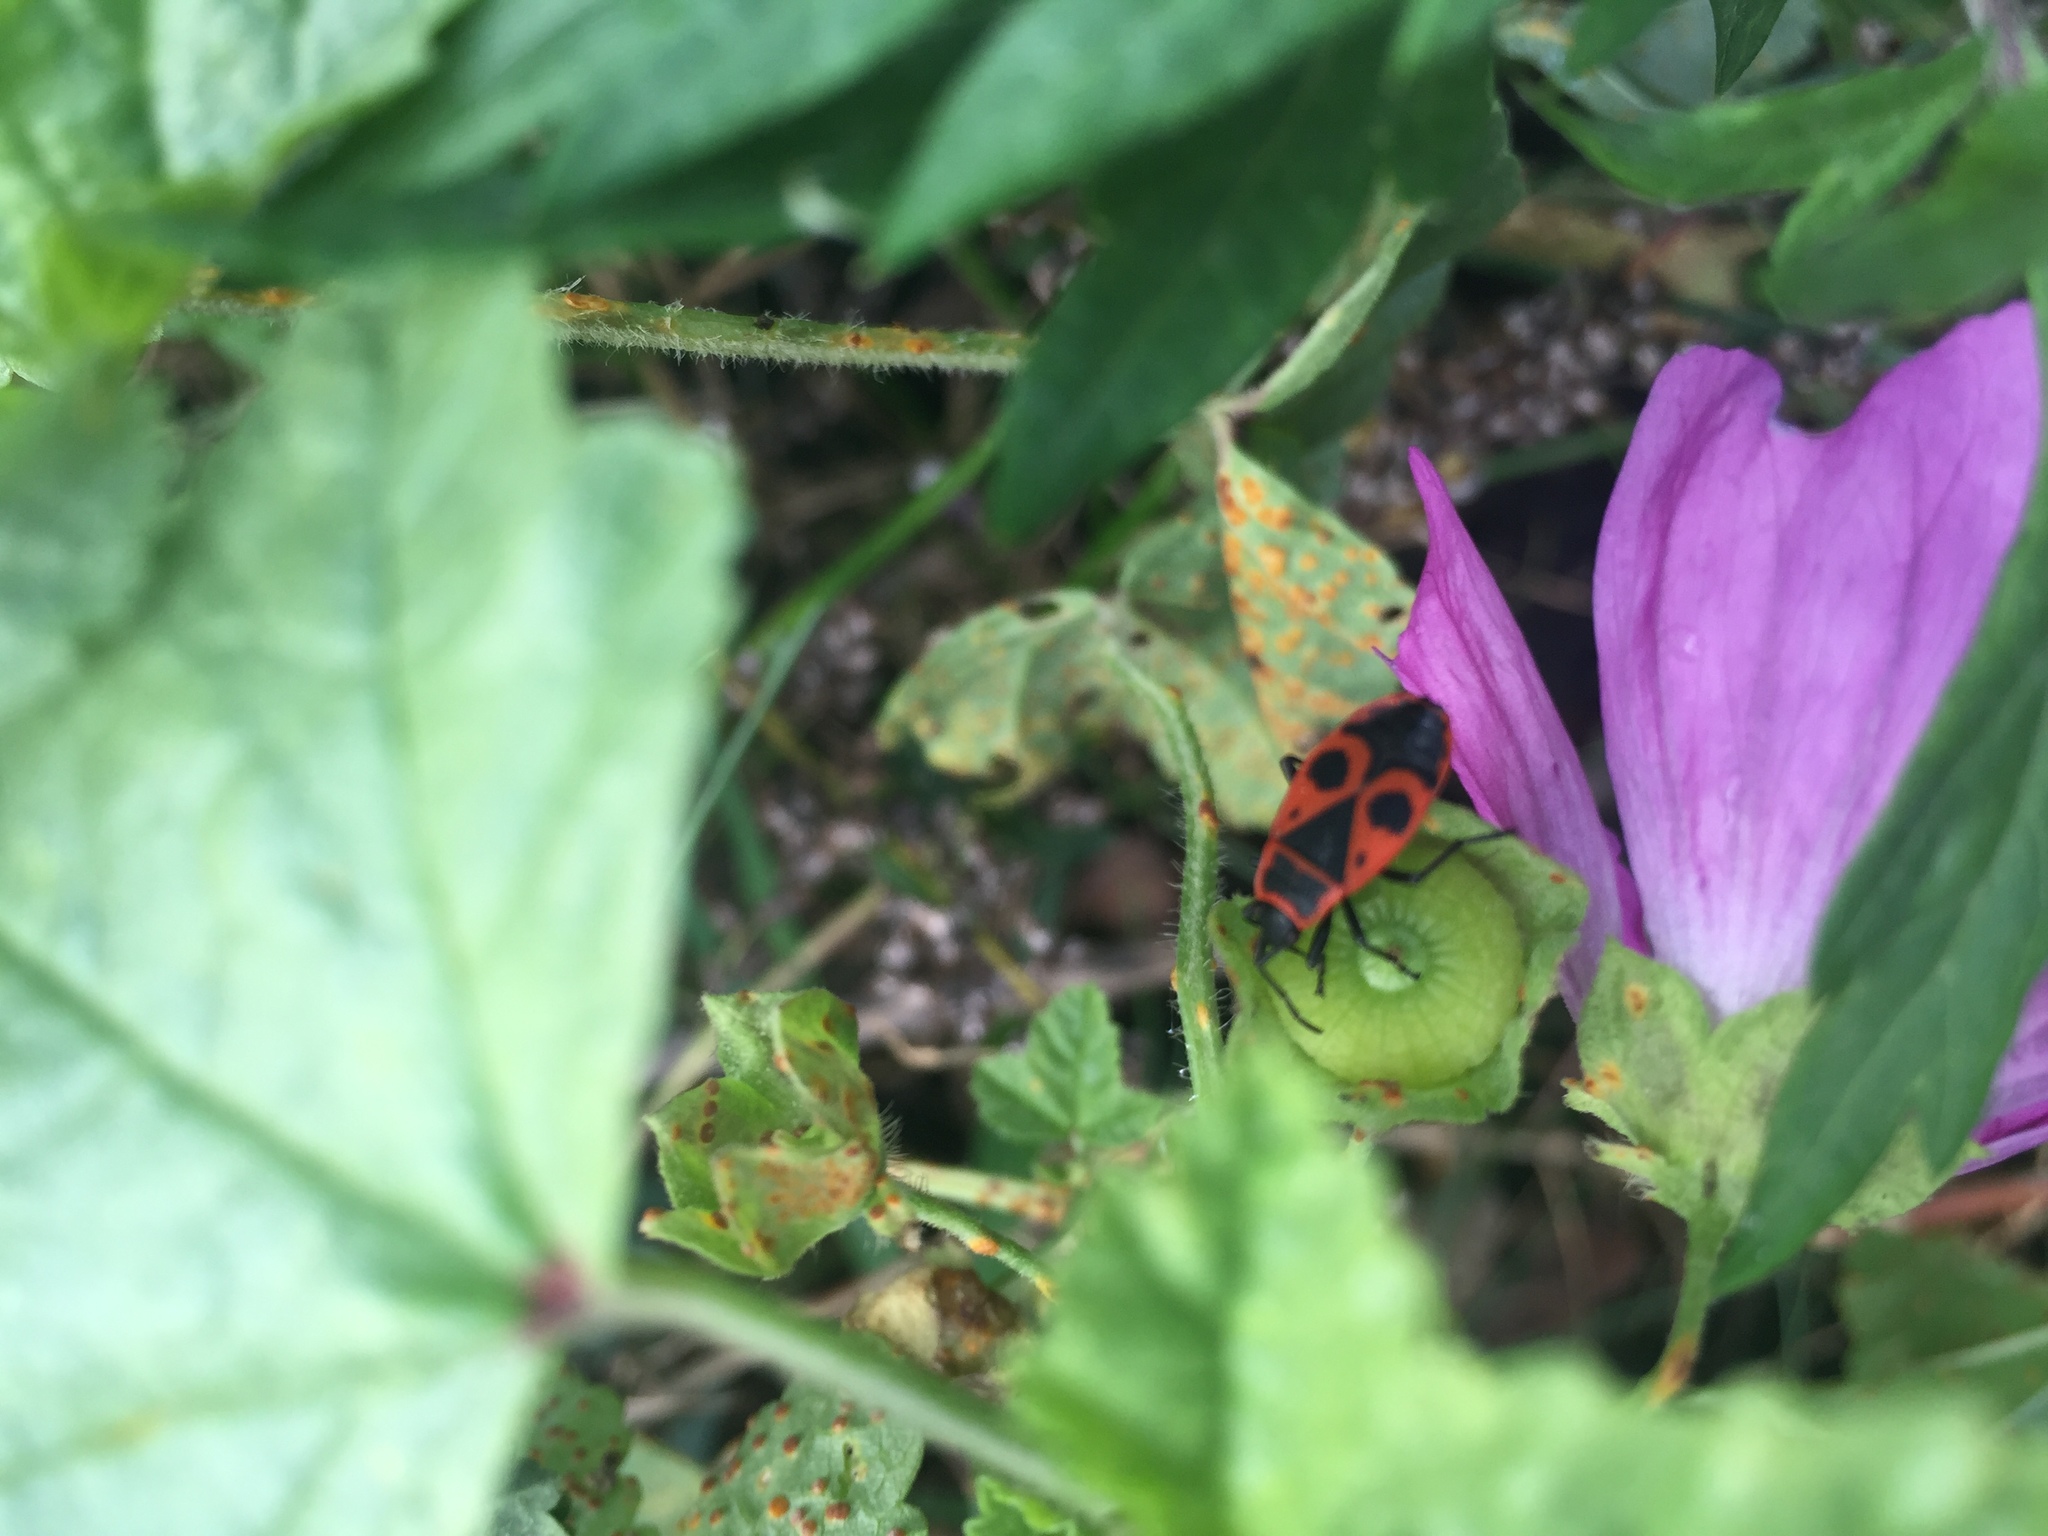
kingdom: Animalia
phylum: Arthropoda
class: Insecta
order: Hemiptera
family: Pyrrhocoridae
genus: Pyrrhocoris
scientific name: Pyrrhocoris apterus
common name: Firebug
